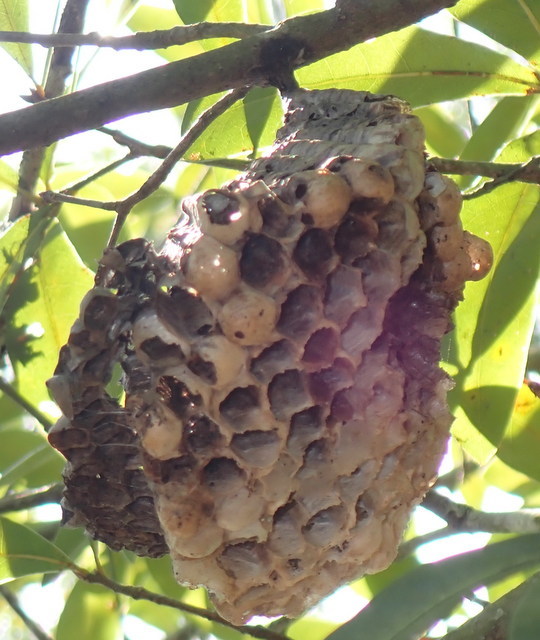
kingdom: Animalia
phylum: Arthropoda
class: Insecta
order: Hymenoptera
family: Eumenidae
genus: Polistes
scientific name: Polistes annularis
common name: Ringed paper wasp
